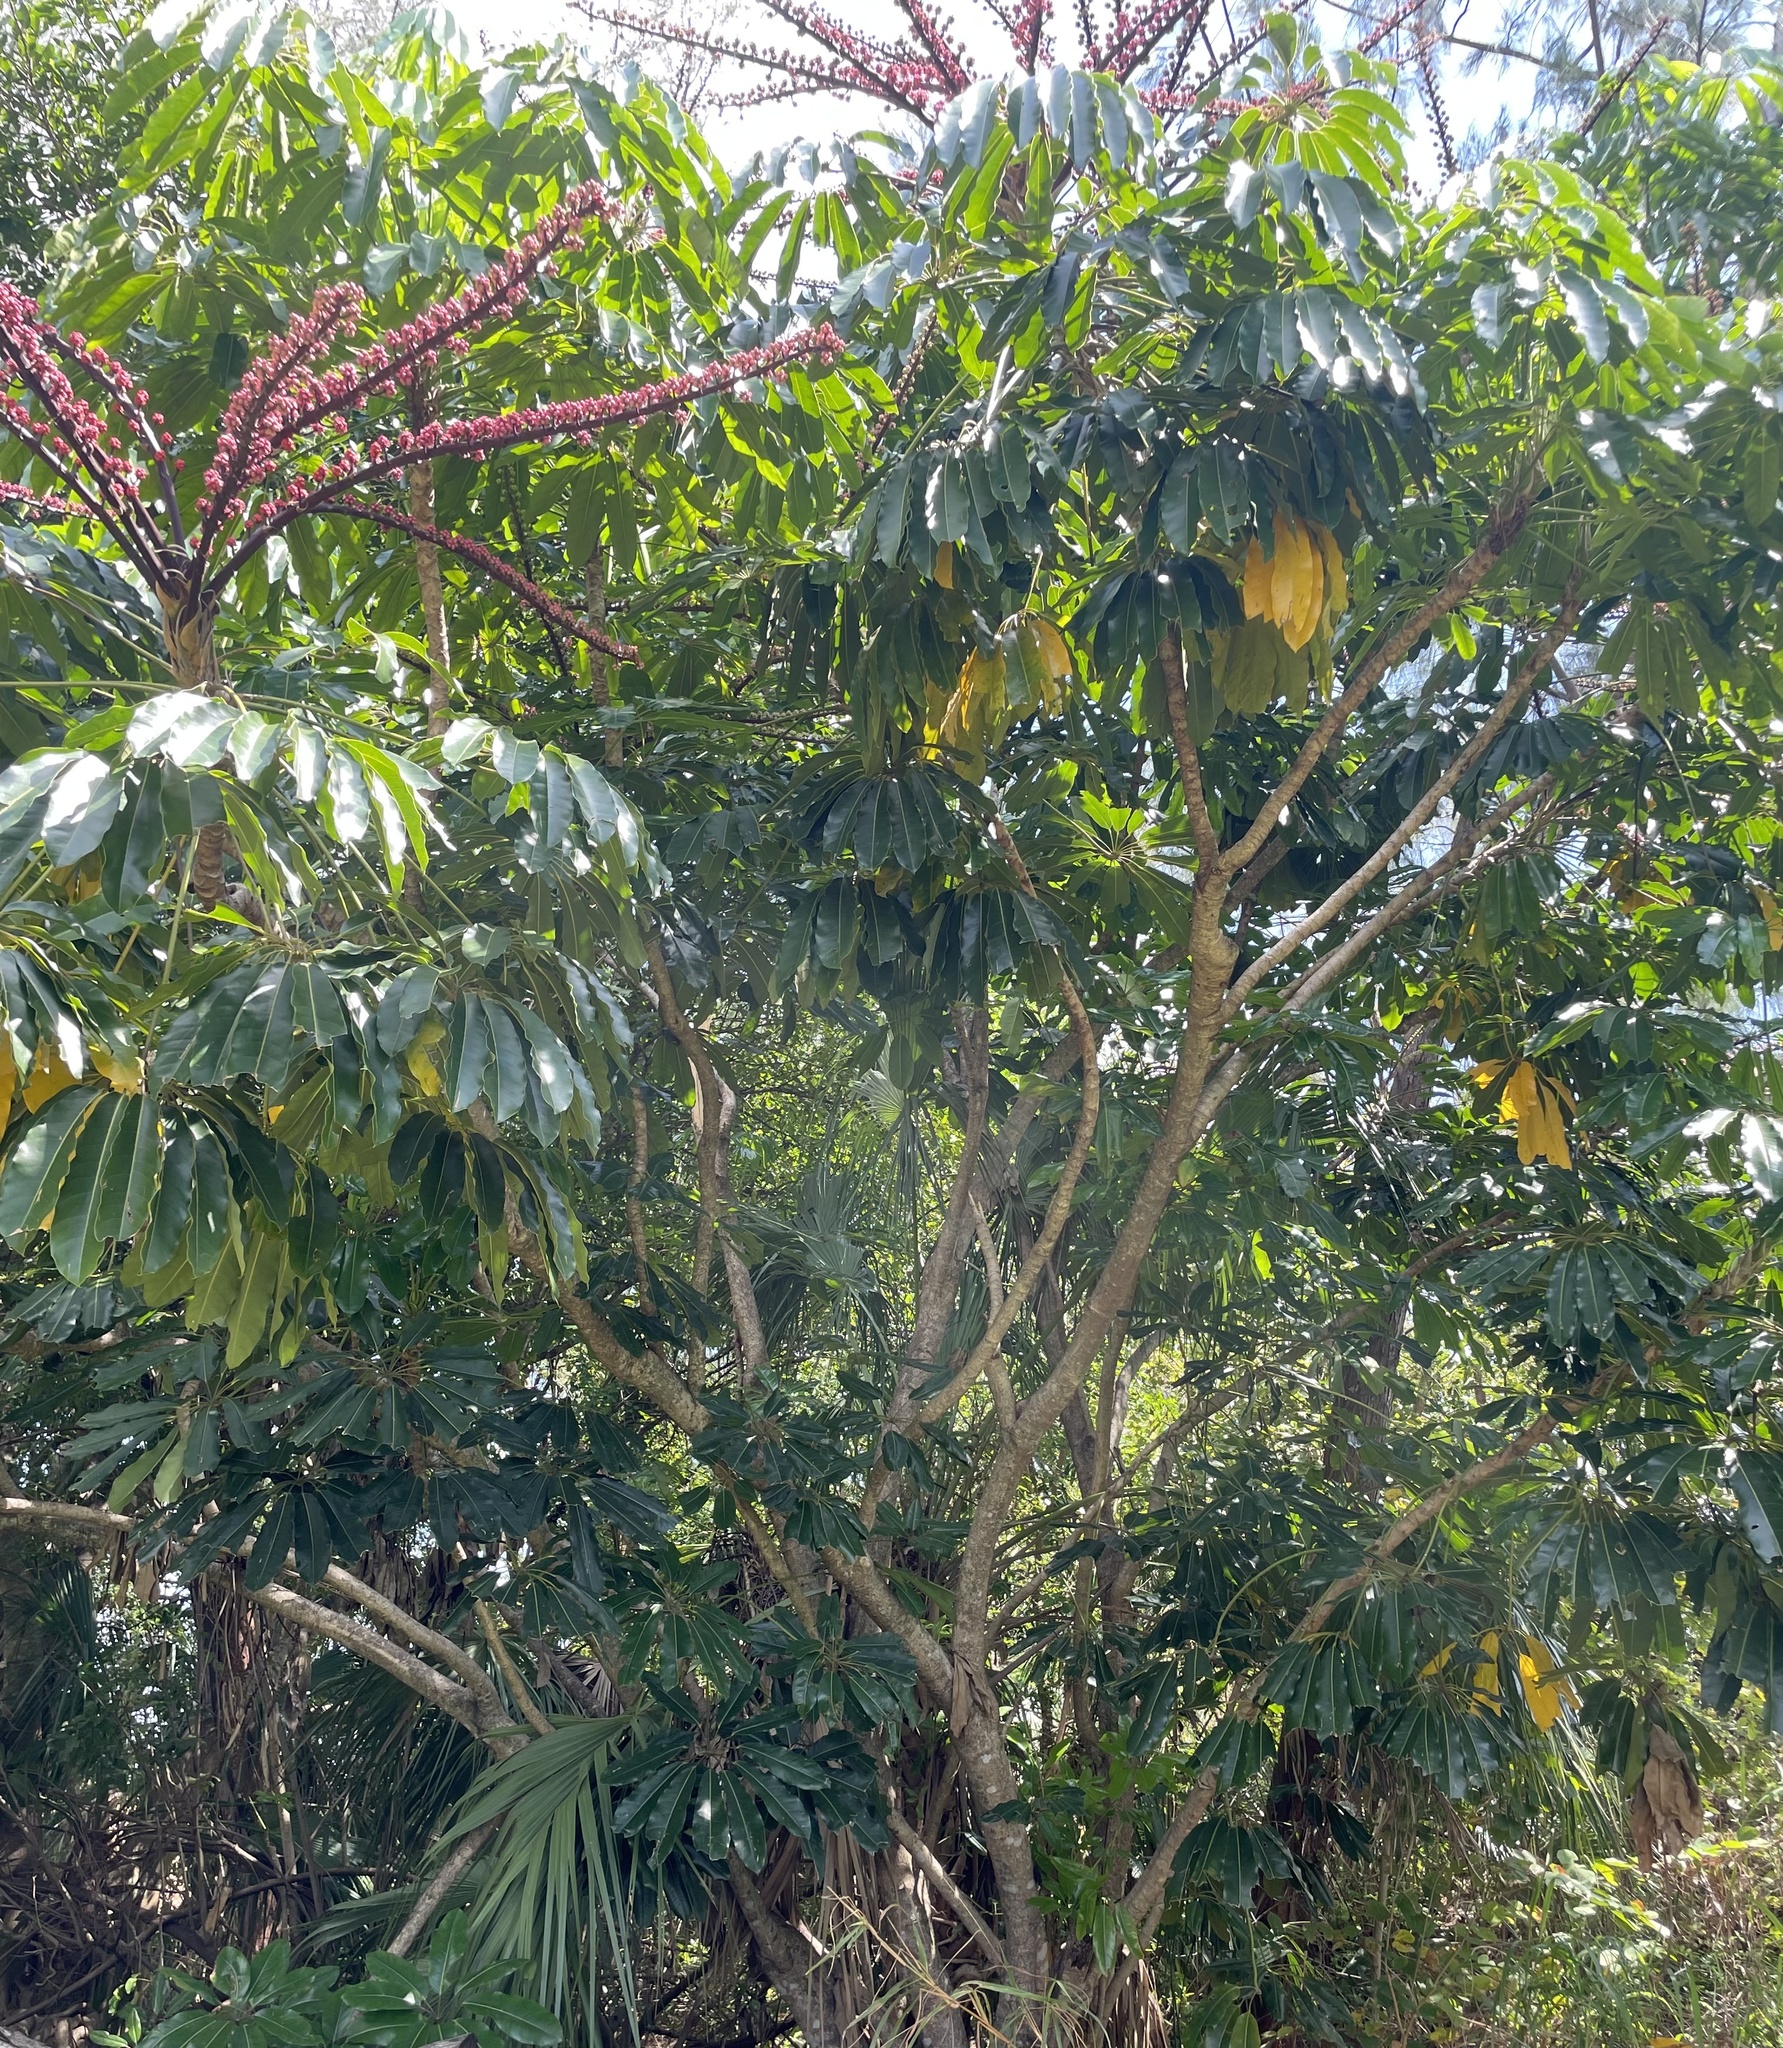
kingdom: Plantae
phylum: Tracheophyta
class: Magnoliopsida
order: Apiales
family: Araliaceae
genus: Heptapleurum
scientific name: Heptapleurum actinophyllum
